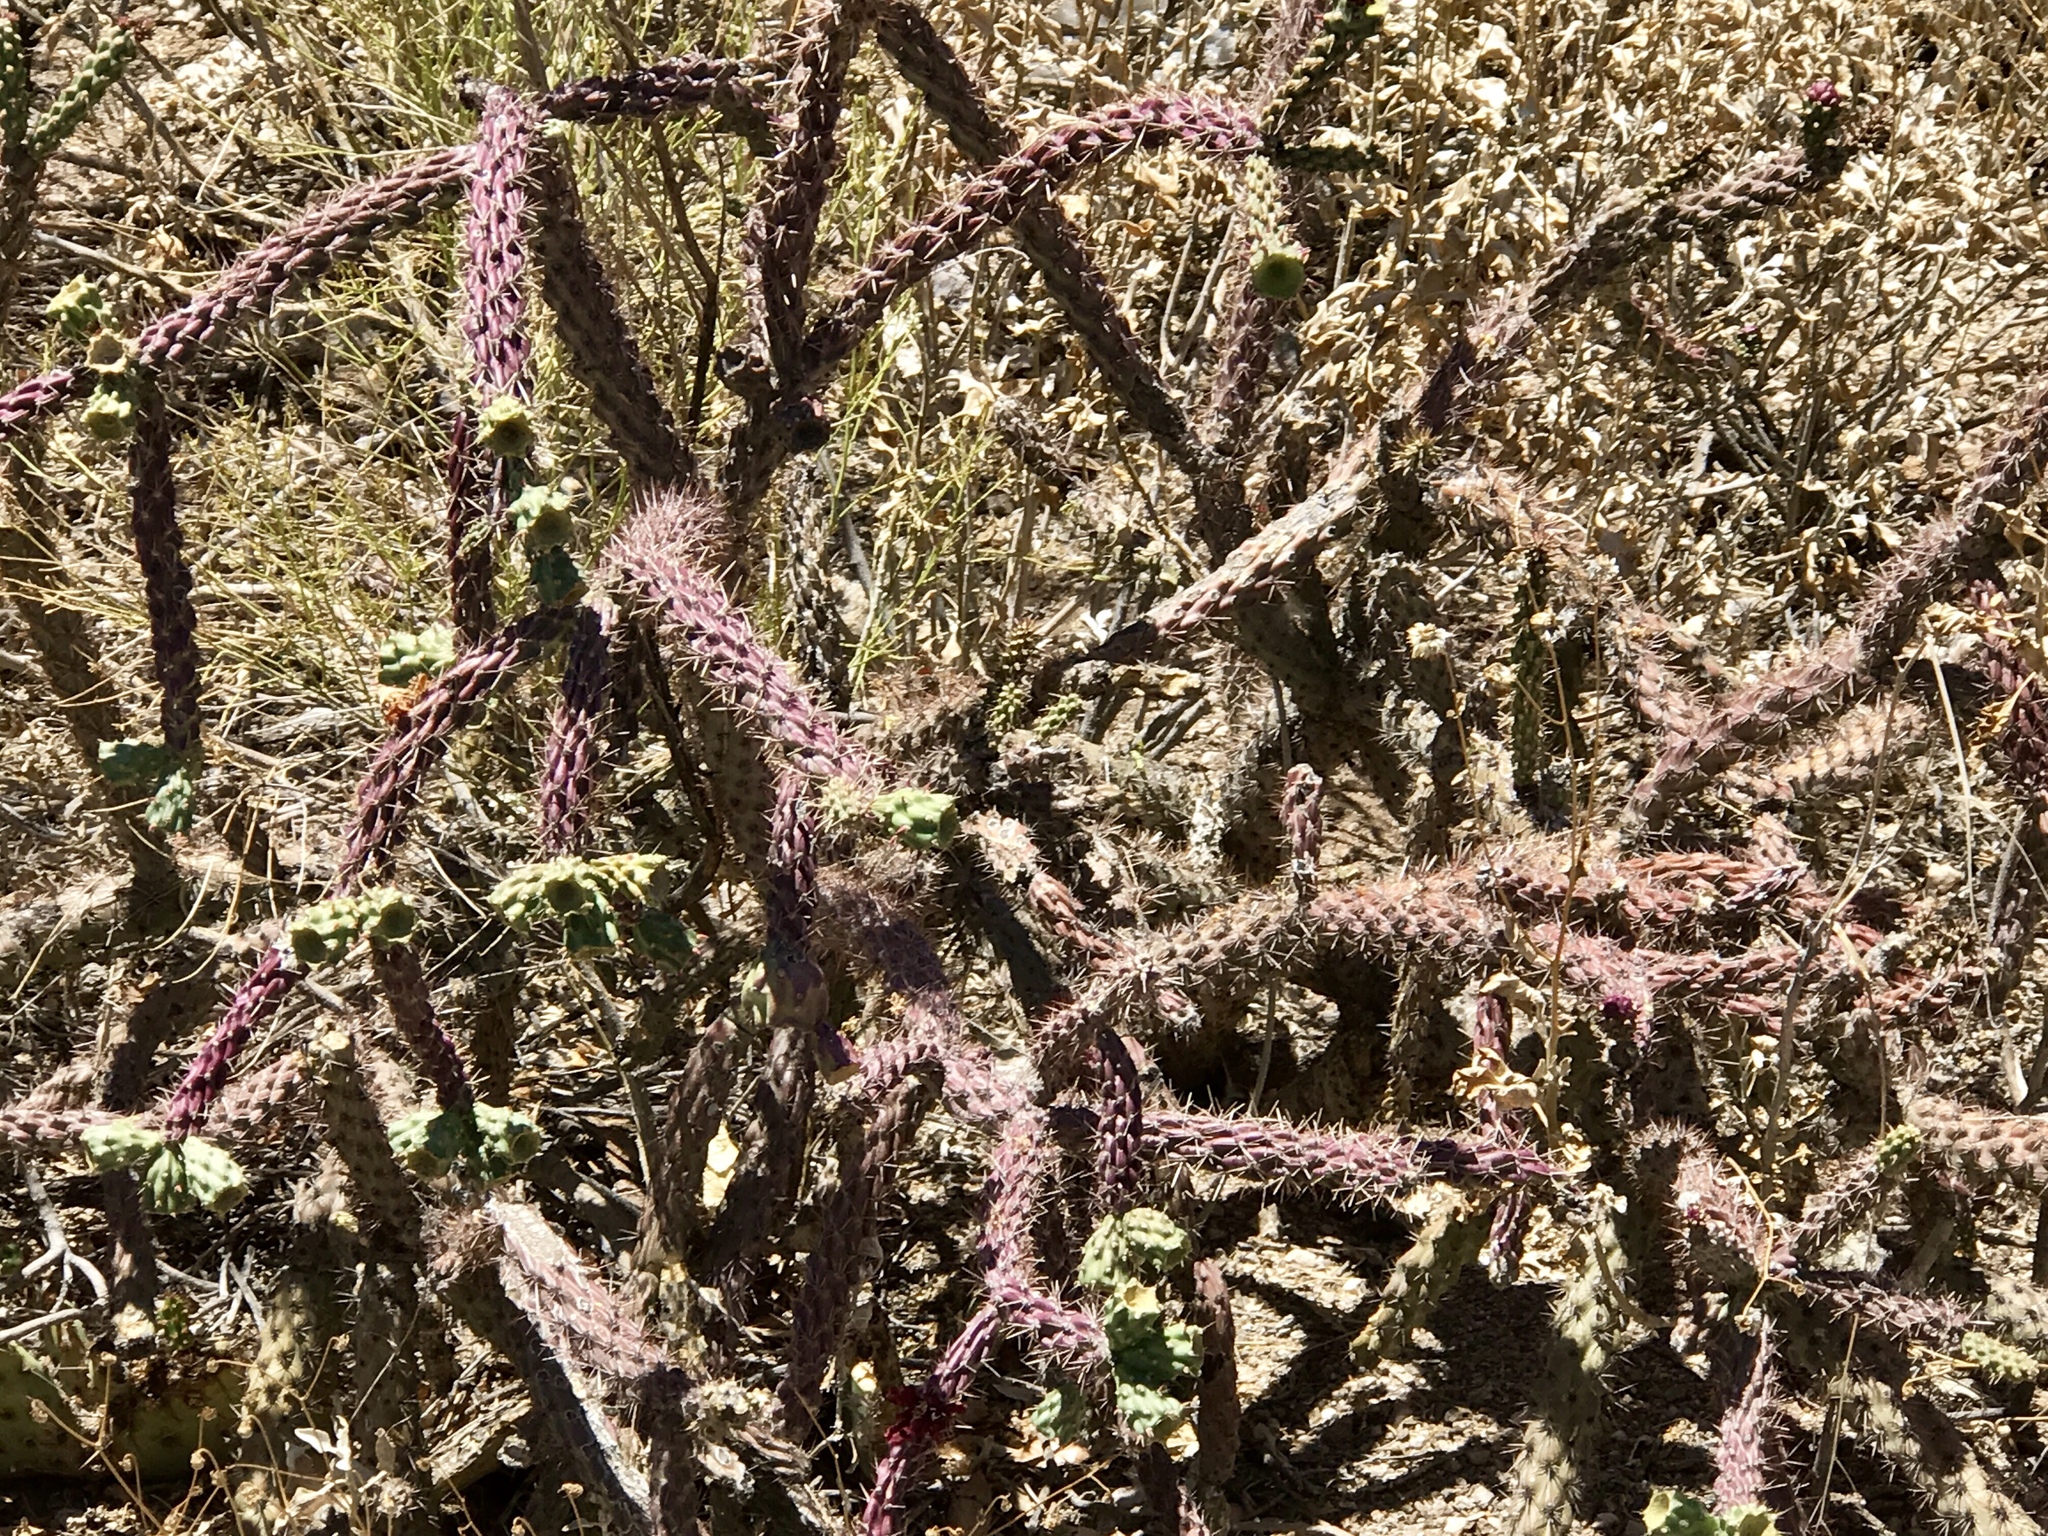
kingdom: Plantae
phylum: Tracheophyta
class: Magnoliopsida
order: Caryophyllales
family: Cactaceae
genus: Cylindropuntia
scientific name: Cylindropuntia thurberi
